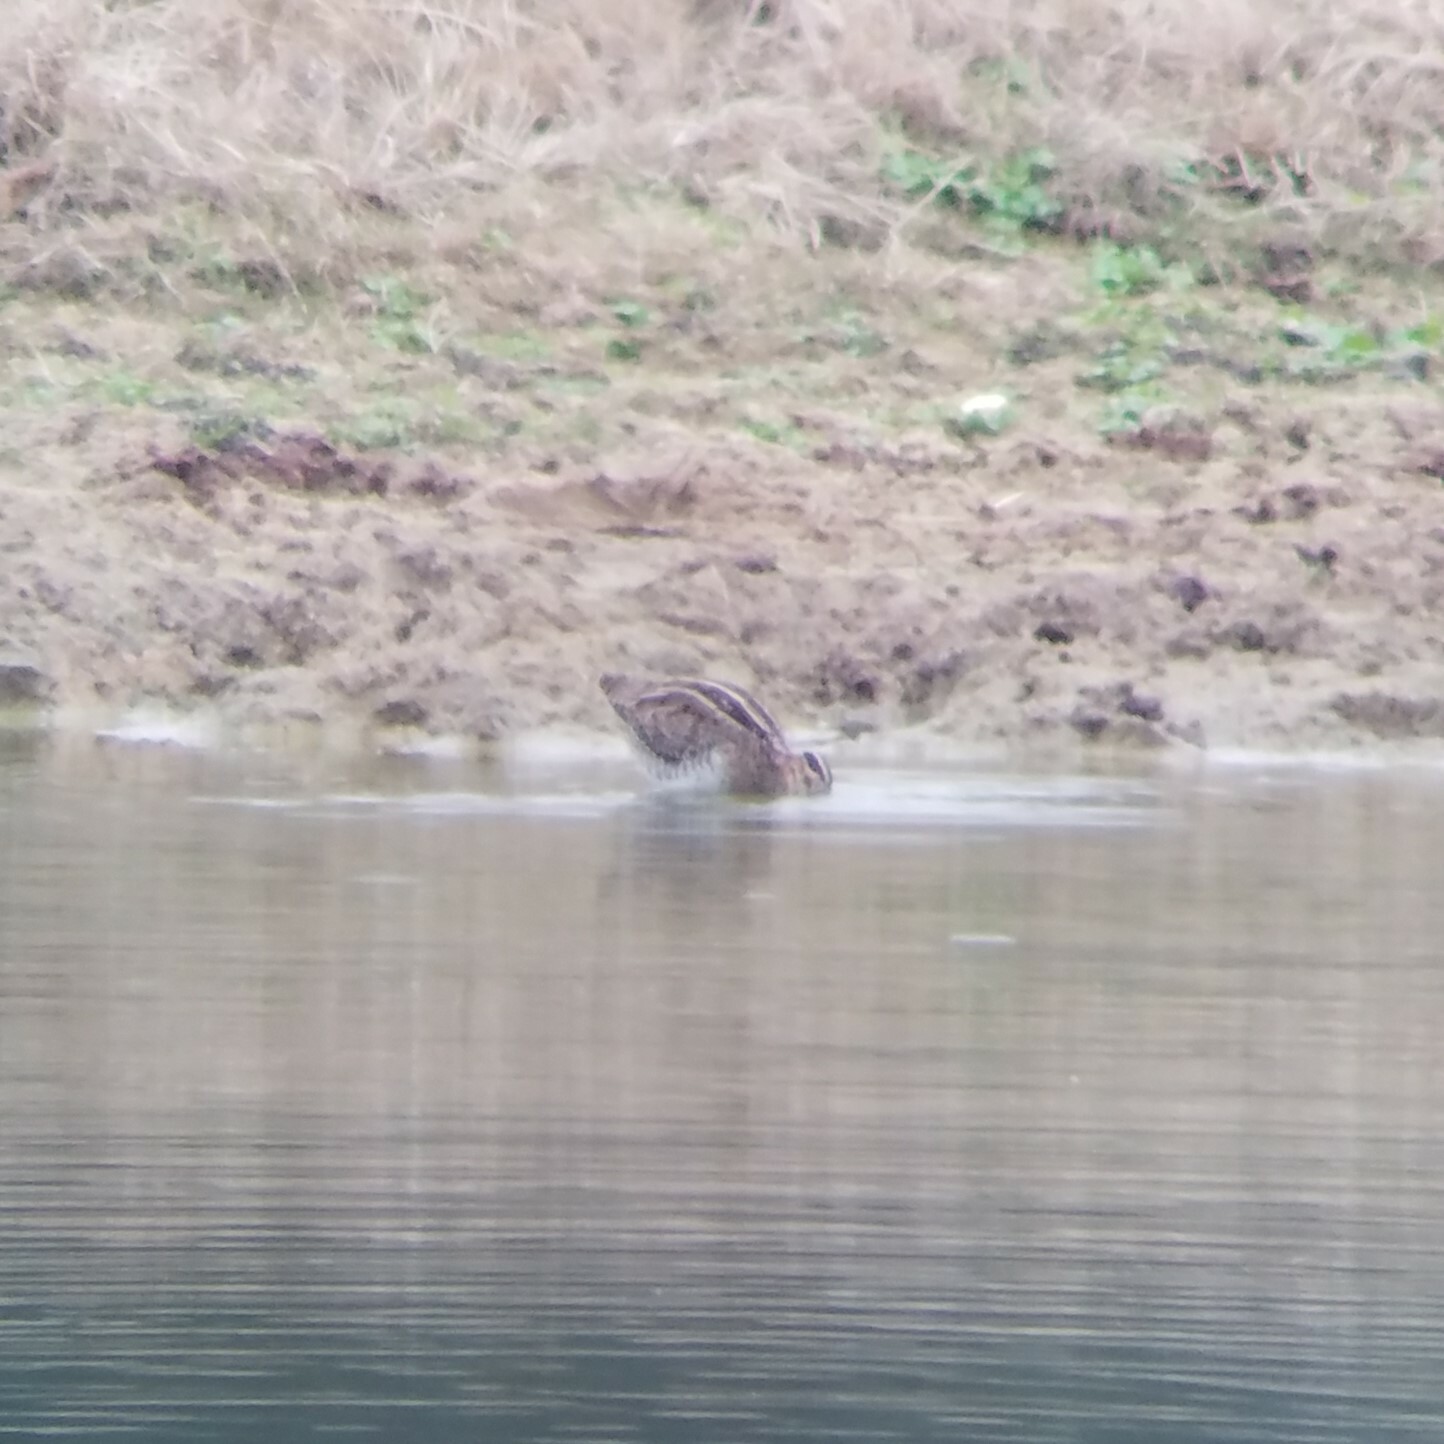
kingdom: Animalia
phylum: Chordata
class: Aves
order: Charadriiformes
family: Scolopacidae
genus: Gallinago
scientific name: Gallinago delicata
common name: Wilson's snipe
